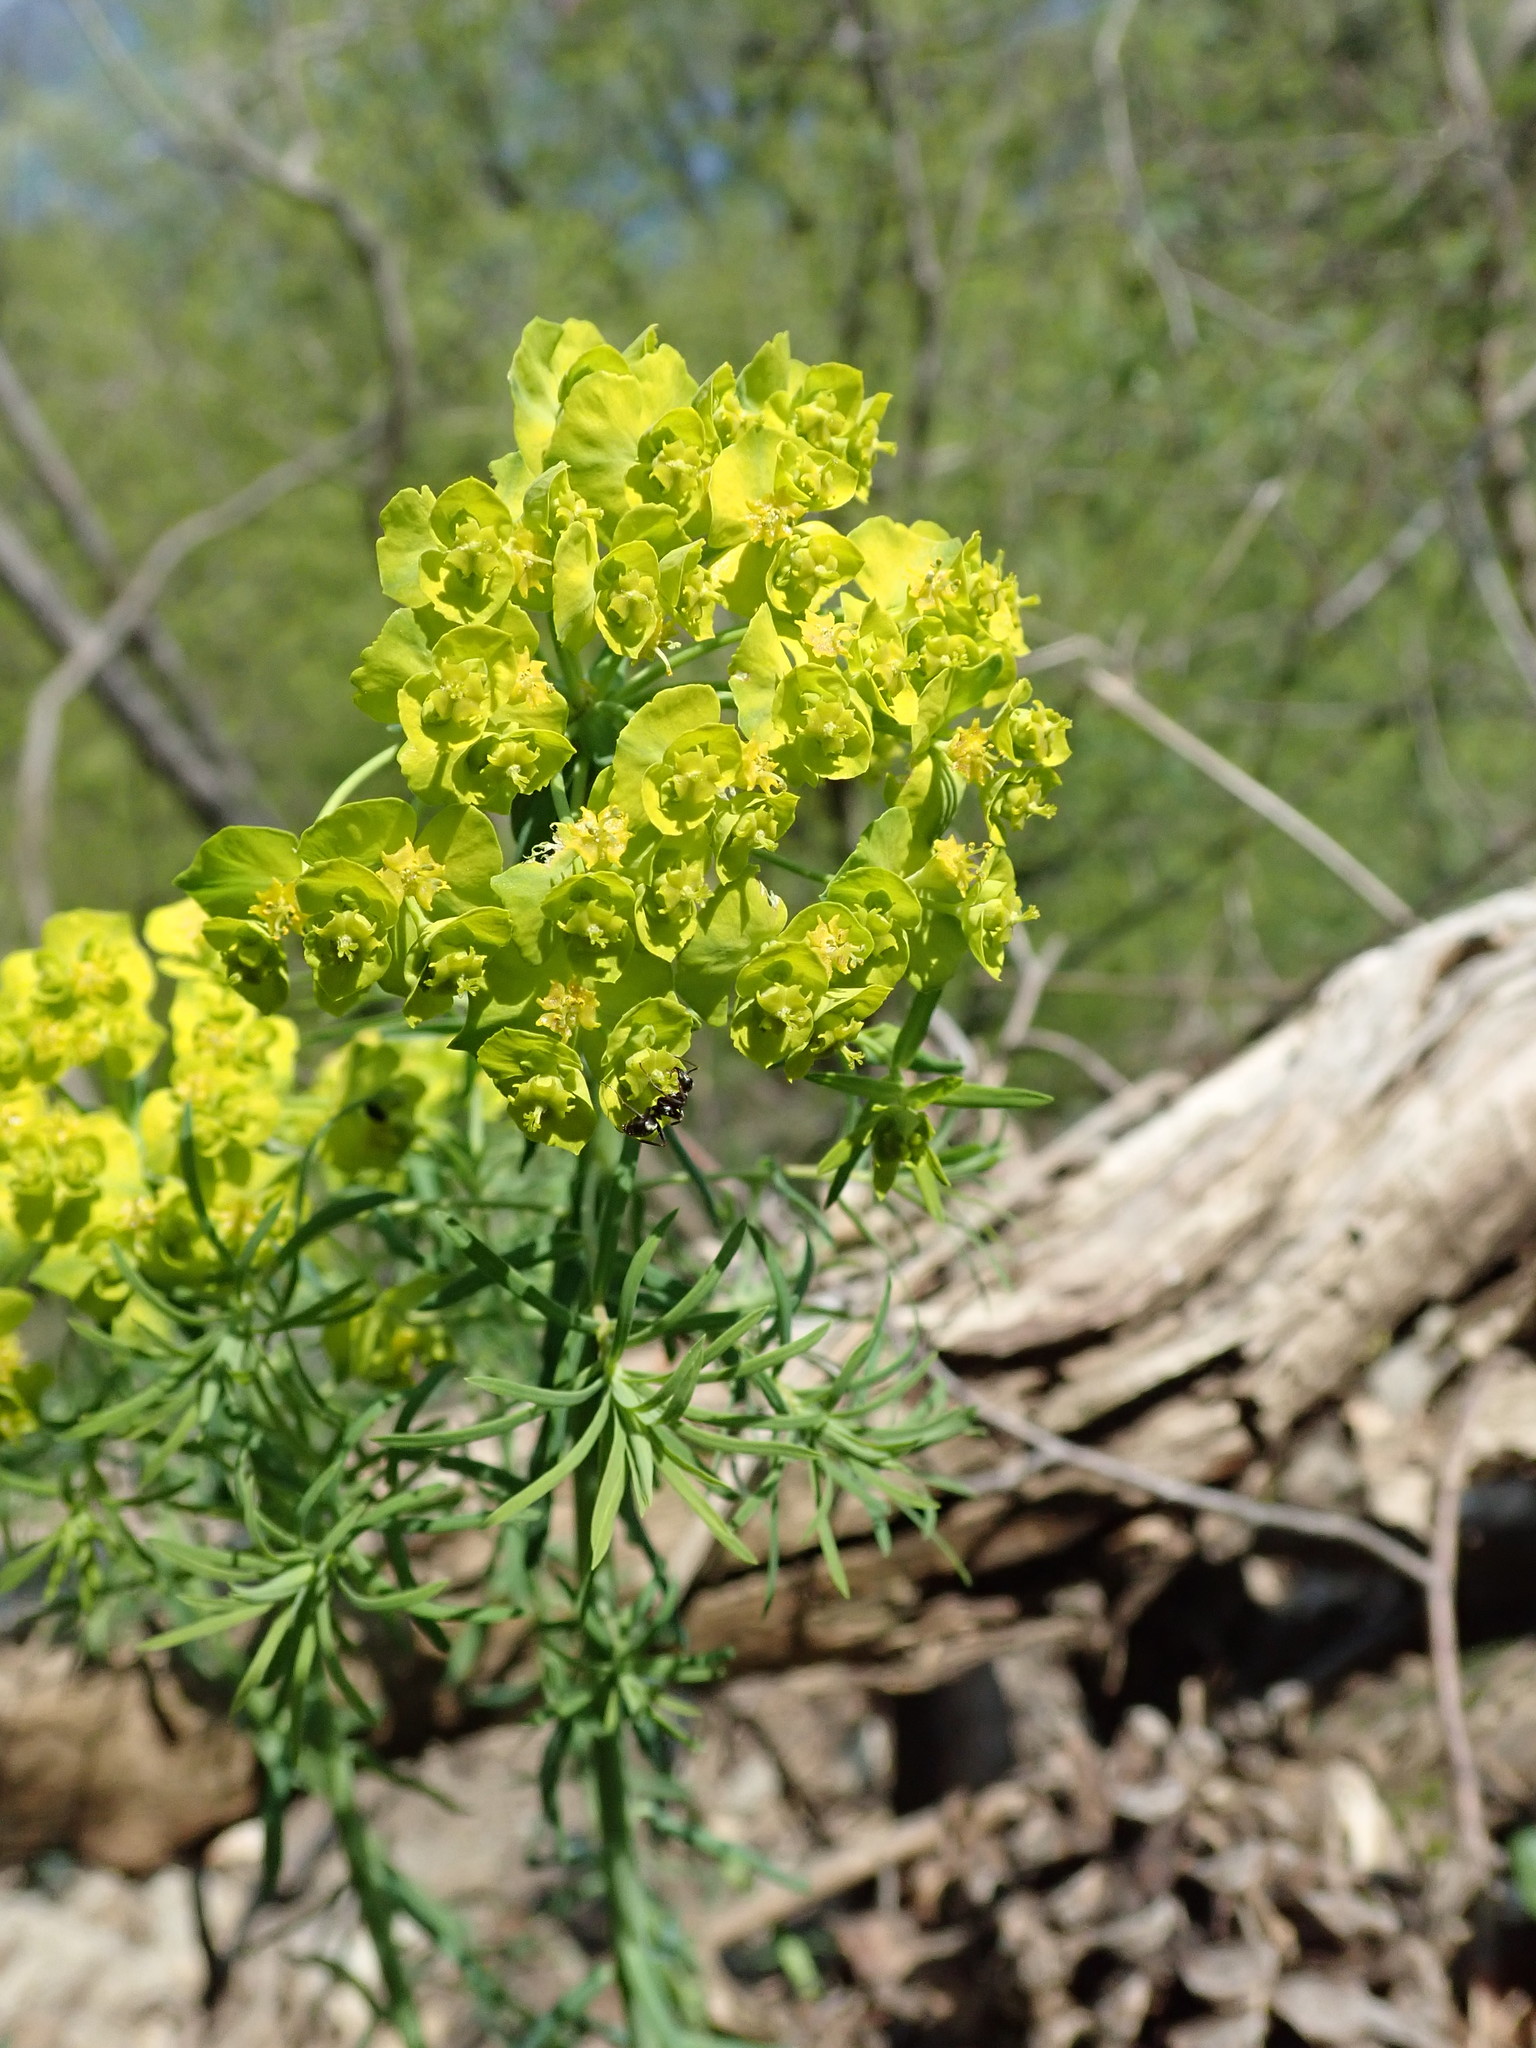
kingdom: Plantae
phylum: Tracheophyta
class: Magnoliopsida
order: Malpighiales
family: Euphorbiaceae
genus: Euphorbia
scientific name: Euphorbia cyparissias
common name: Cypress spurge
